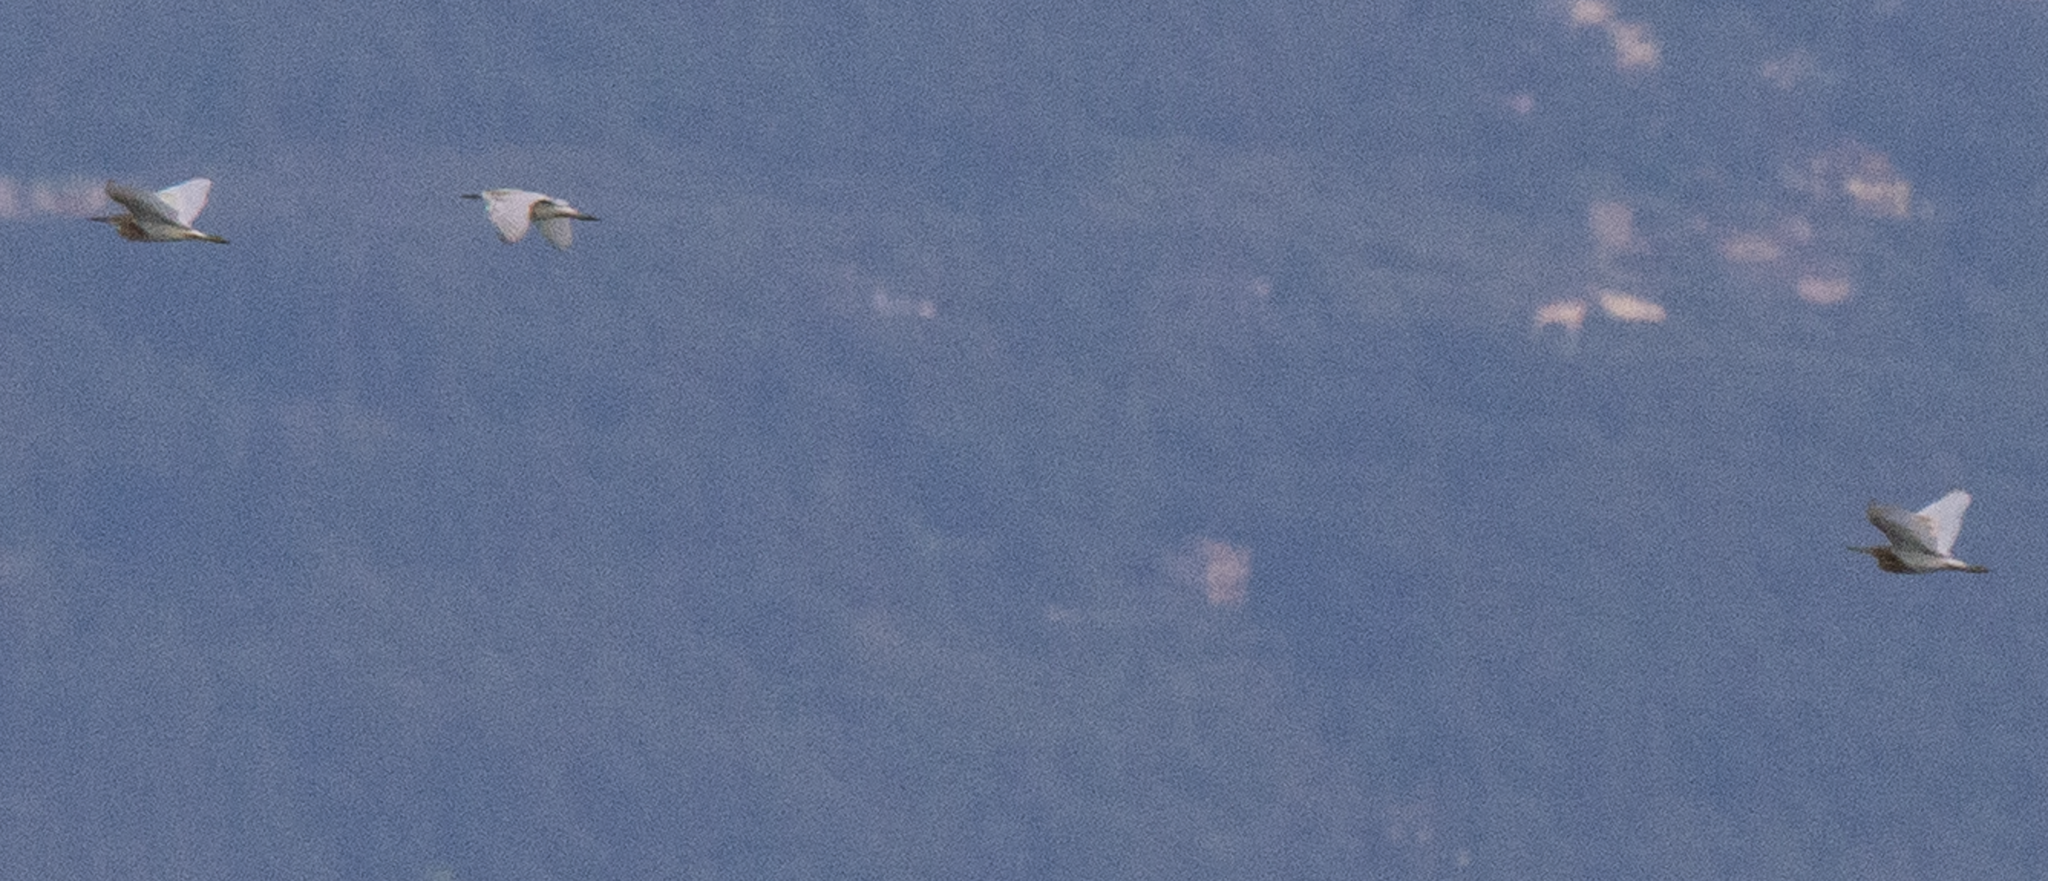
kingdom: Animalia
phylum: Chordata
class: Aves
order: Pelecaniformes
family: Ardeidae
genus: Ardeola
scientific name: Ardeola ralloides
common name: Squacco heron
